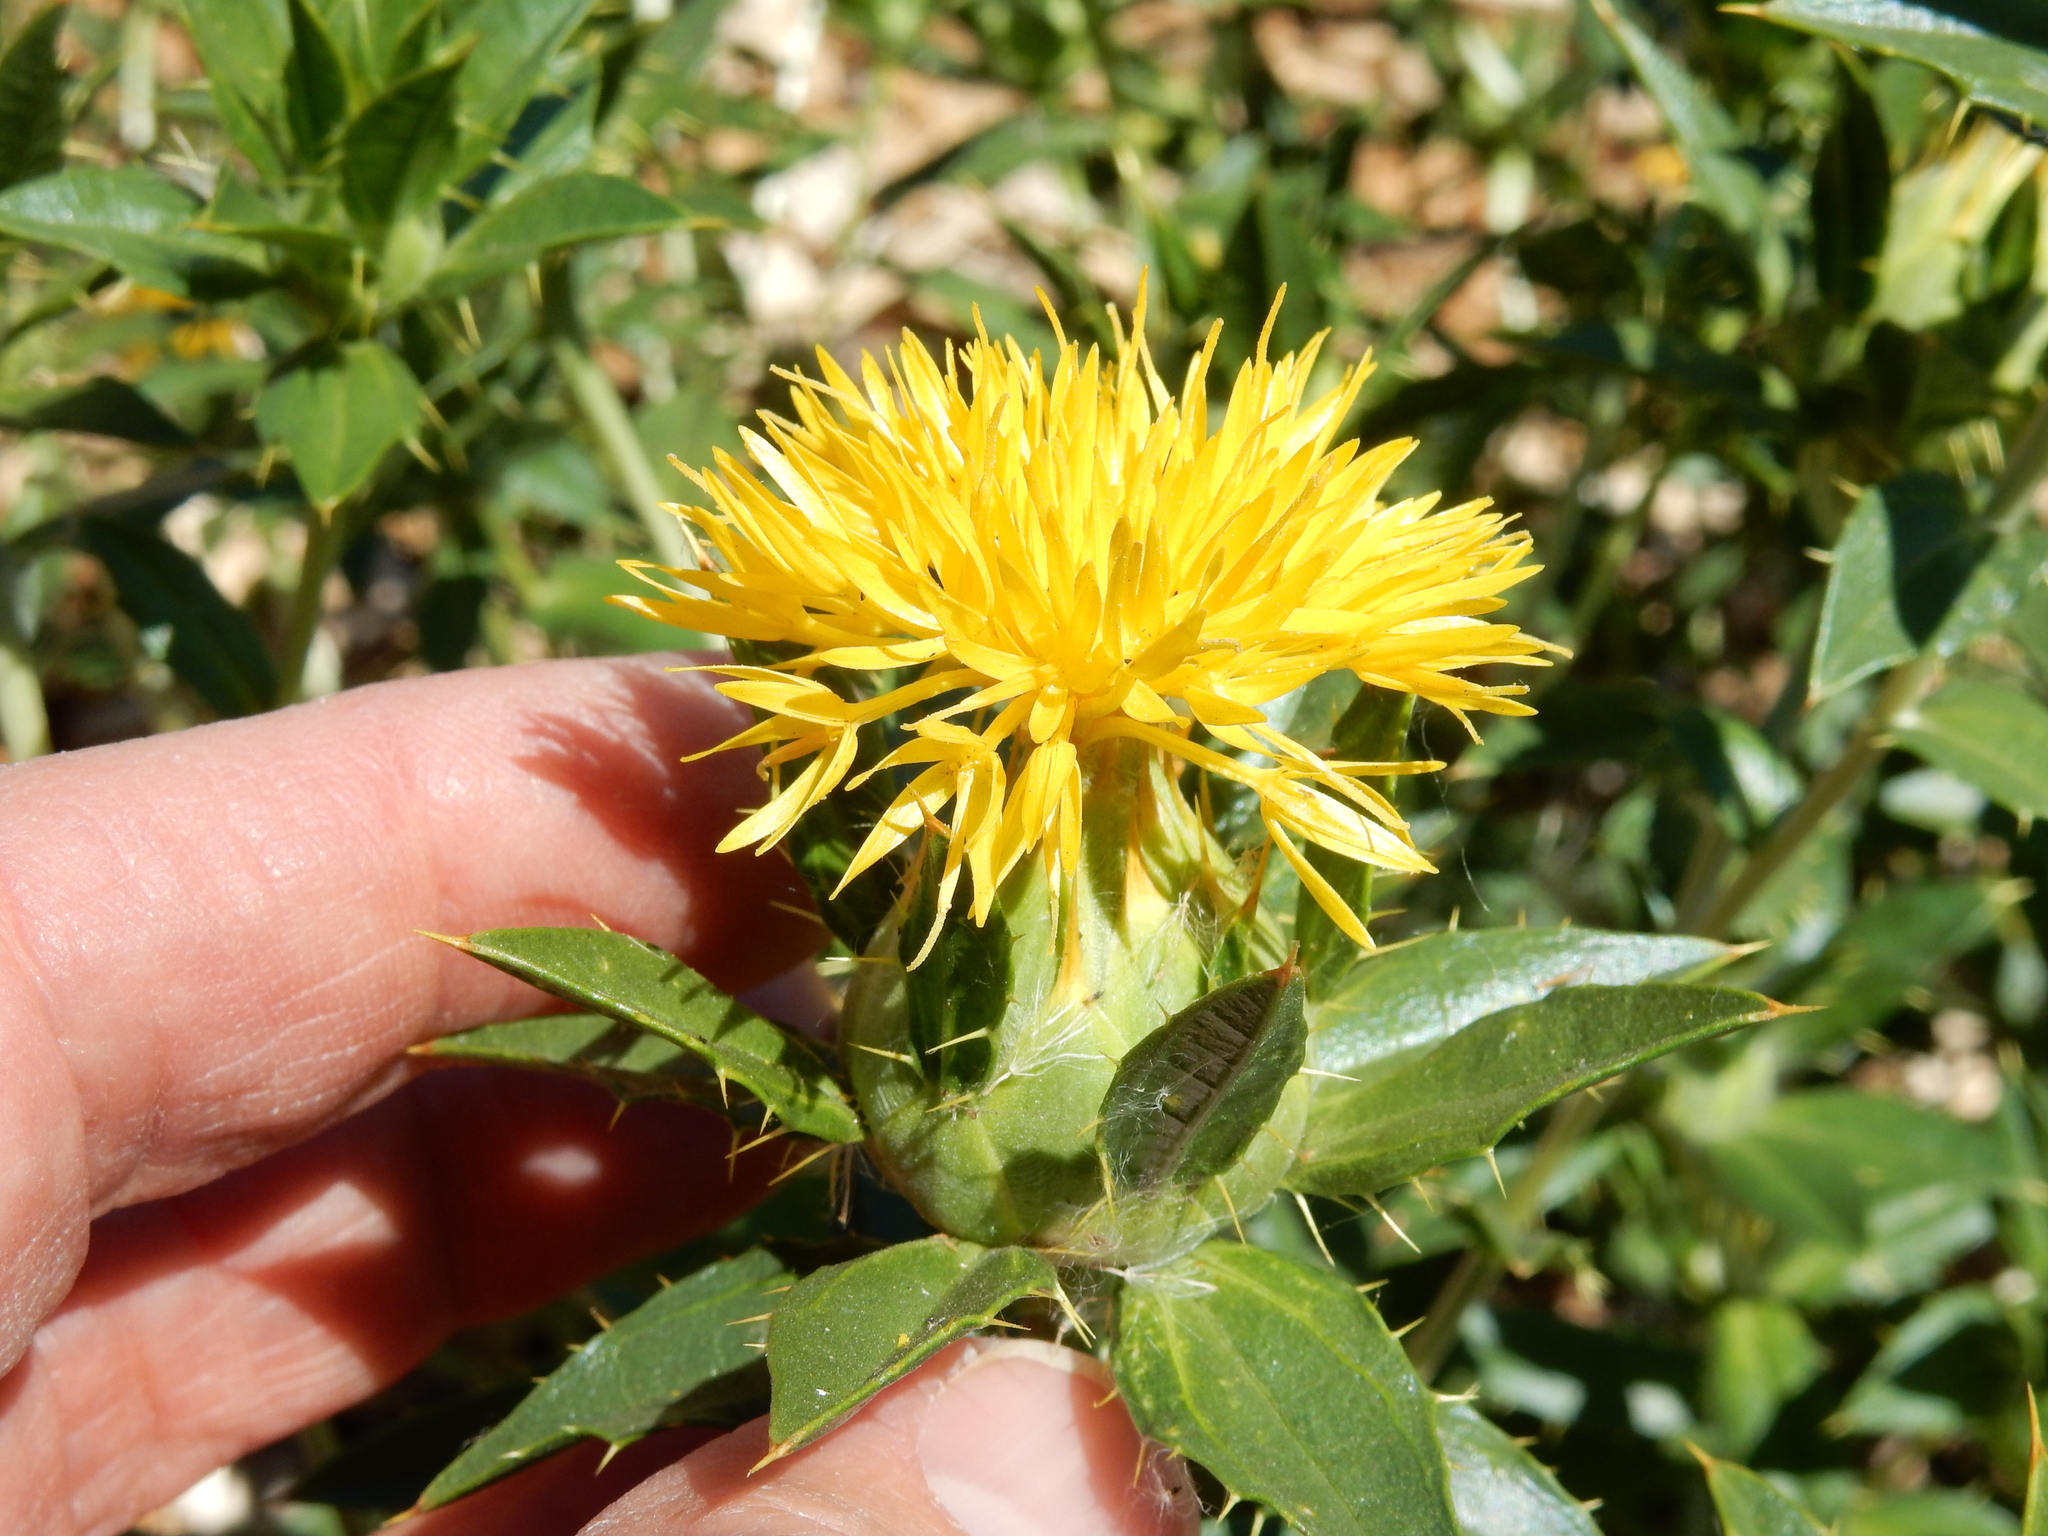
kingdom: Plantae
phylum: Tracheophyta
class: Magnoliopsida
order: Asterales
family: Asteraceae
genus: Carthamus
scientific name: Carthamus tinctorius
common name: Safflower
